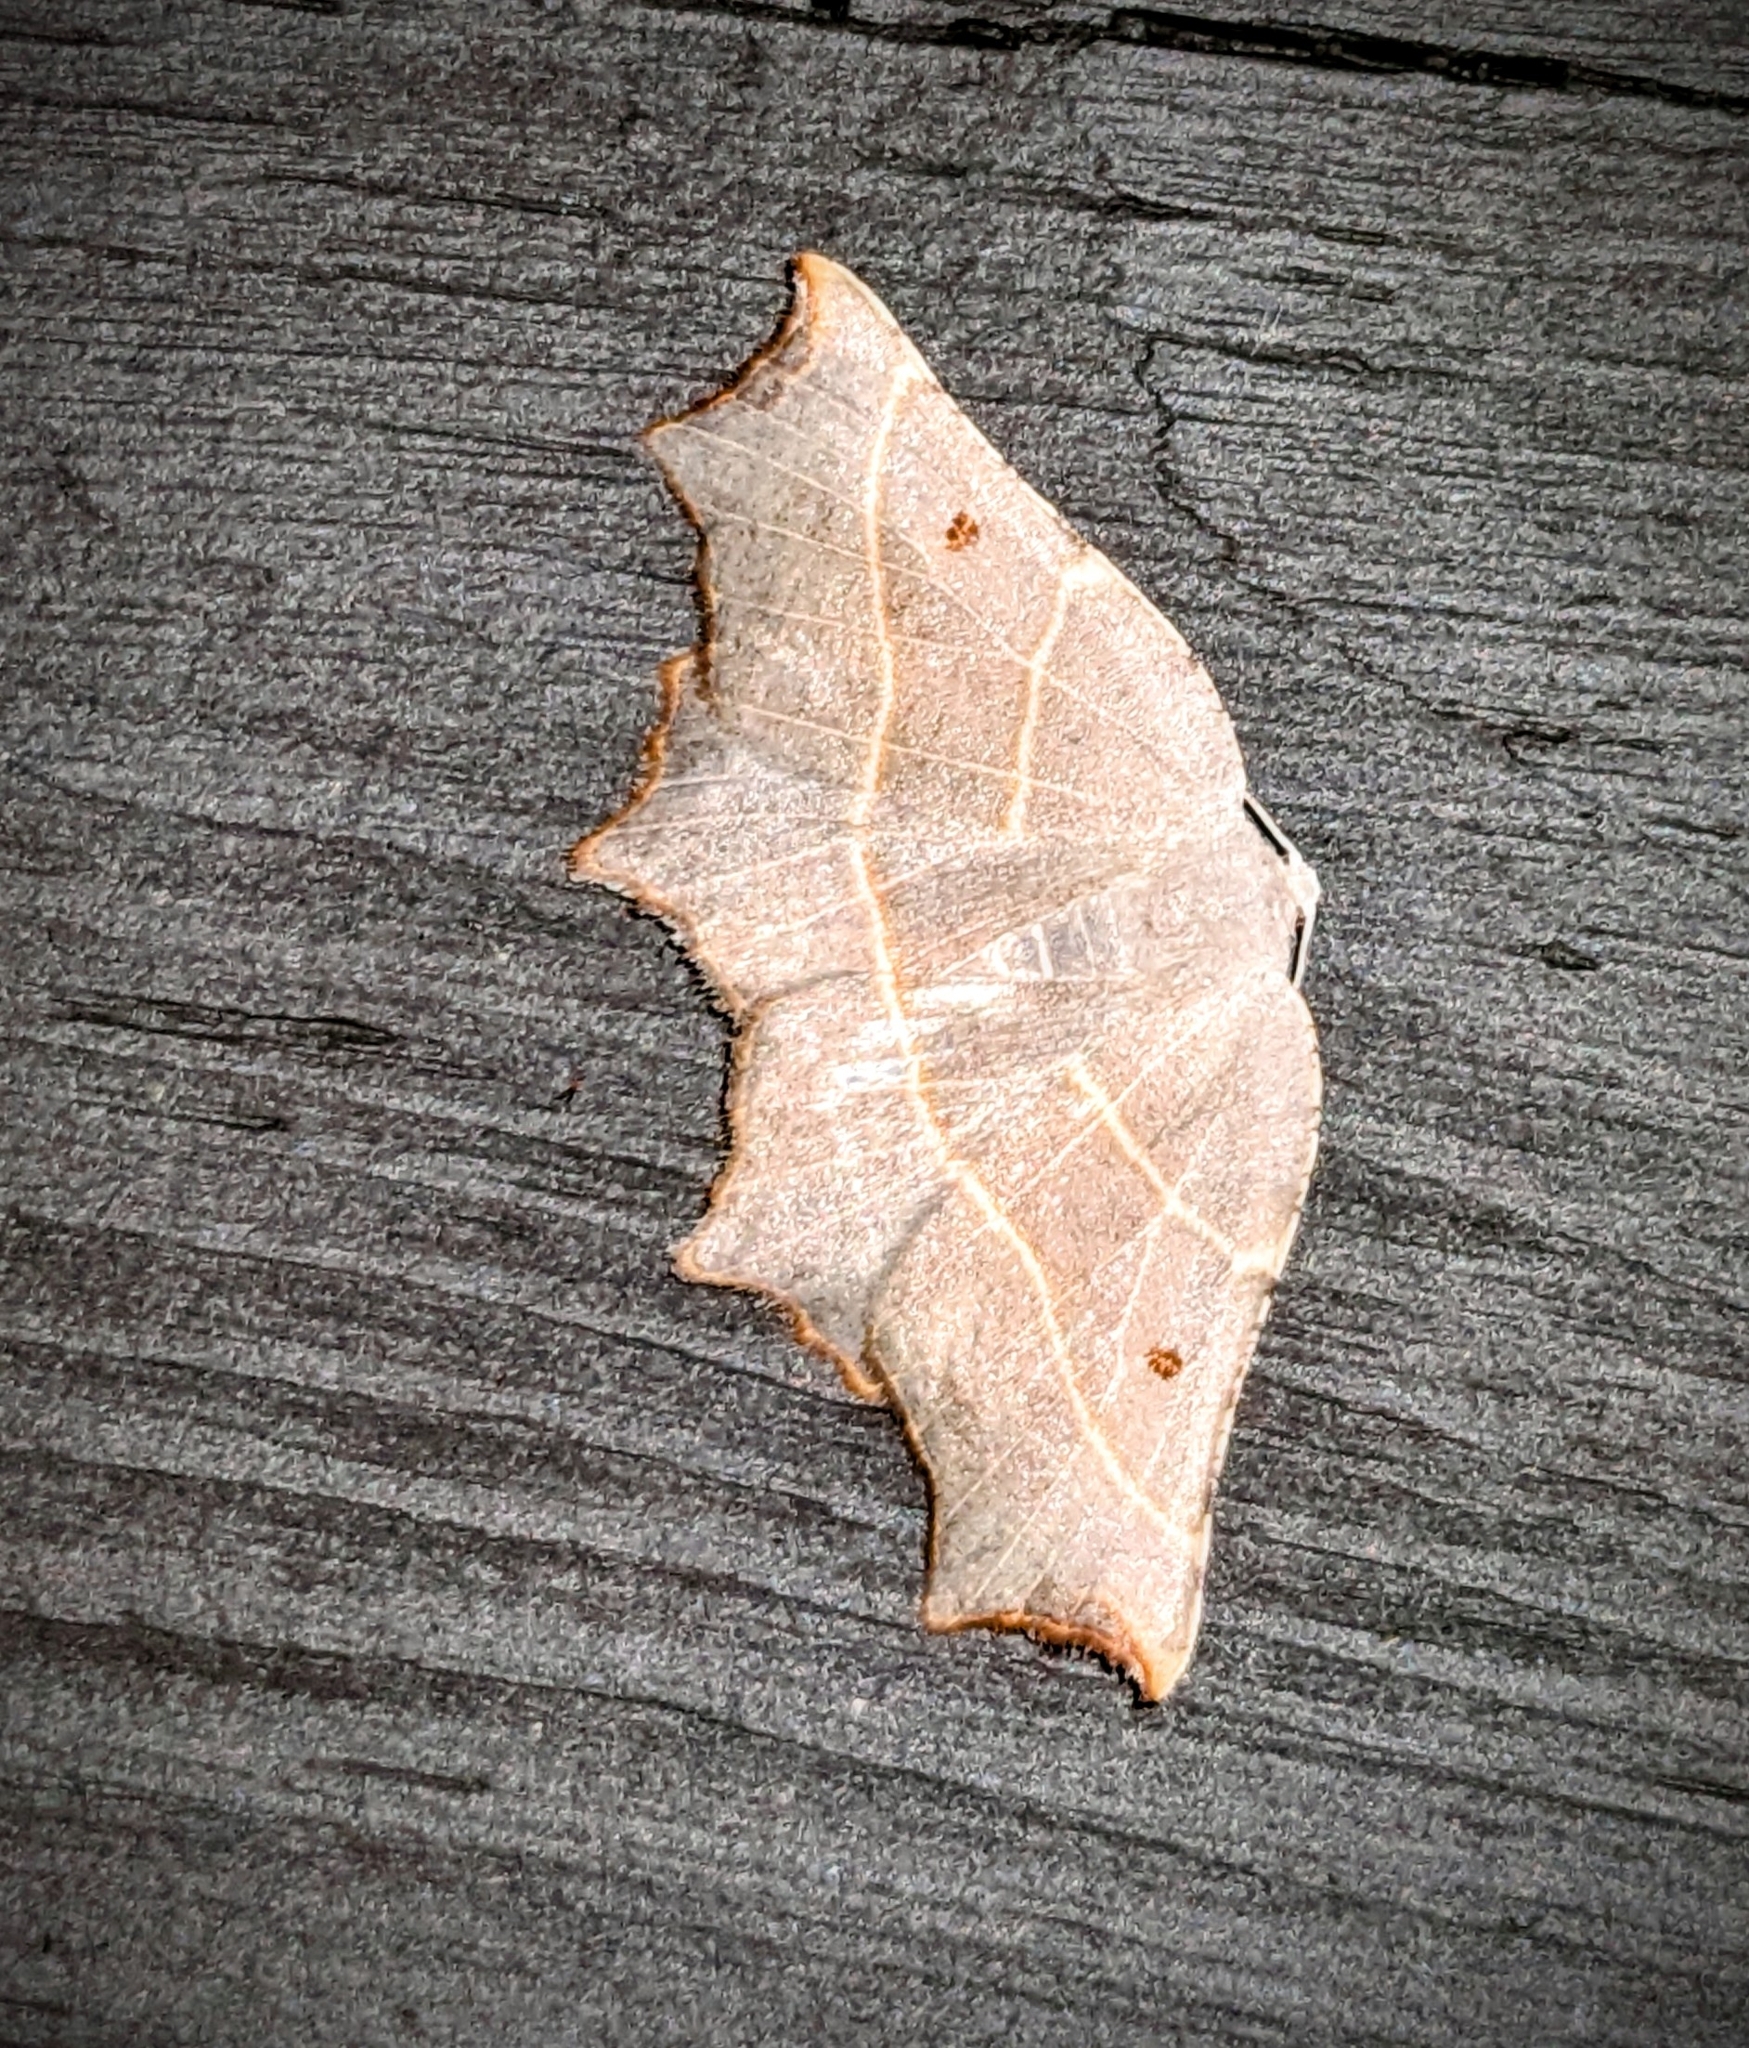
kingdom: Animalia
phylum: Arthropoda
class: Insecta
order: Lepidoptera
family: Geometridae
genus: Metanema
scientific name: Metanema inatomaria
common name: Pale metanema
